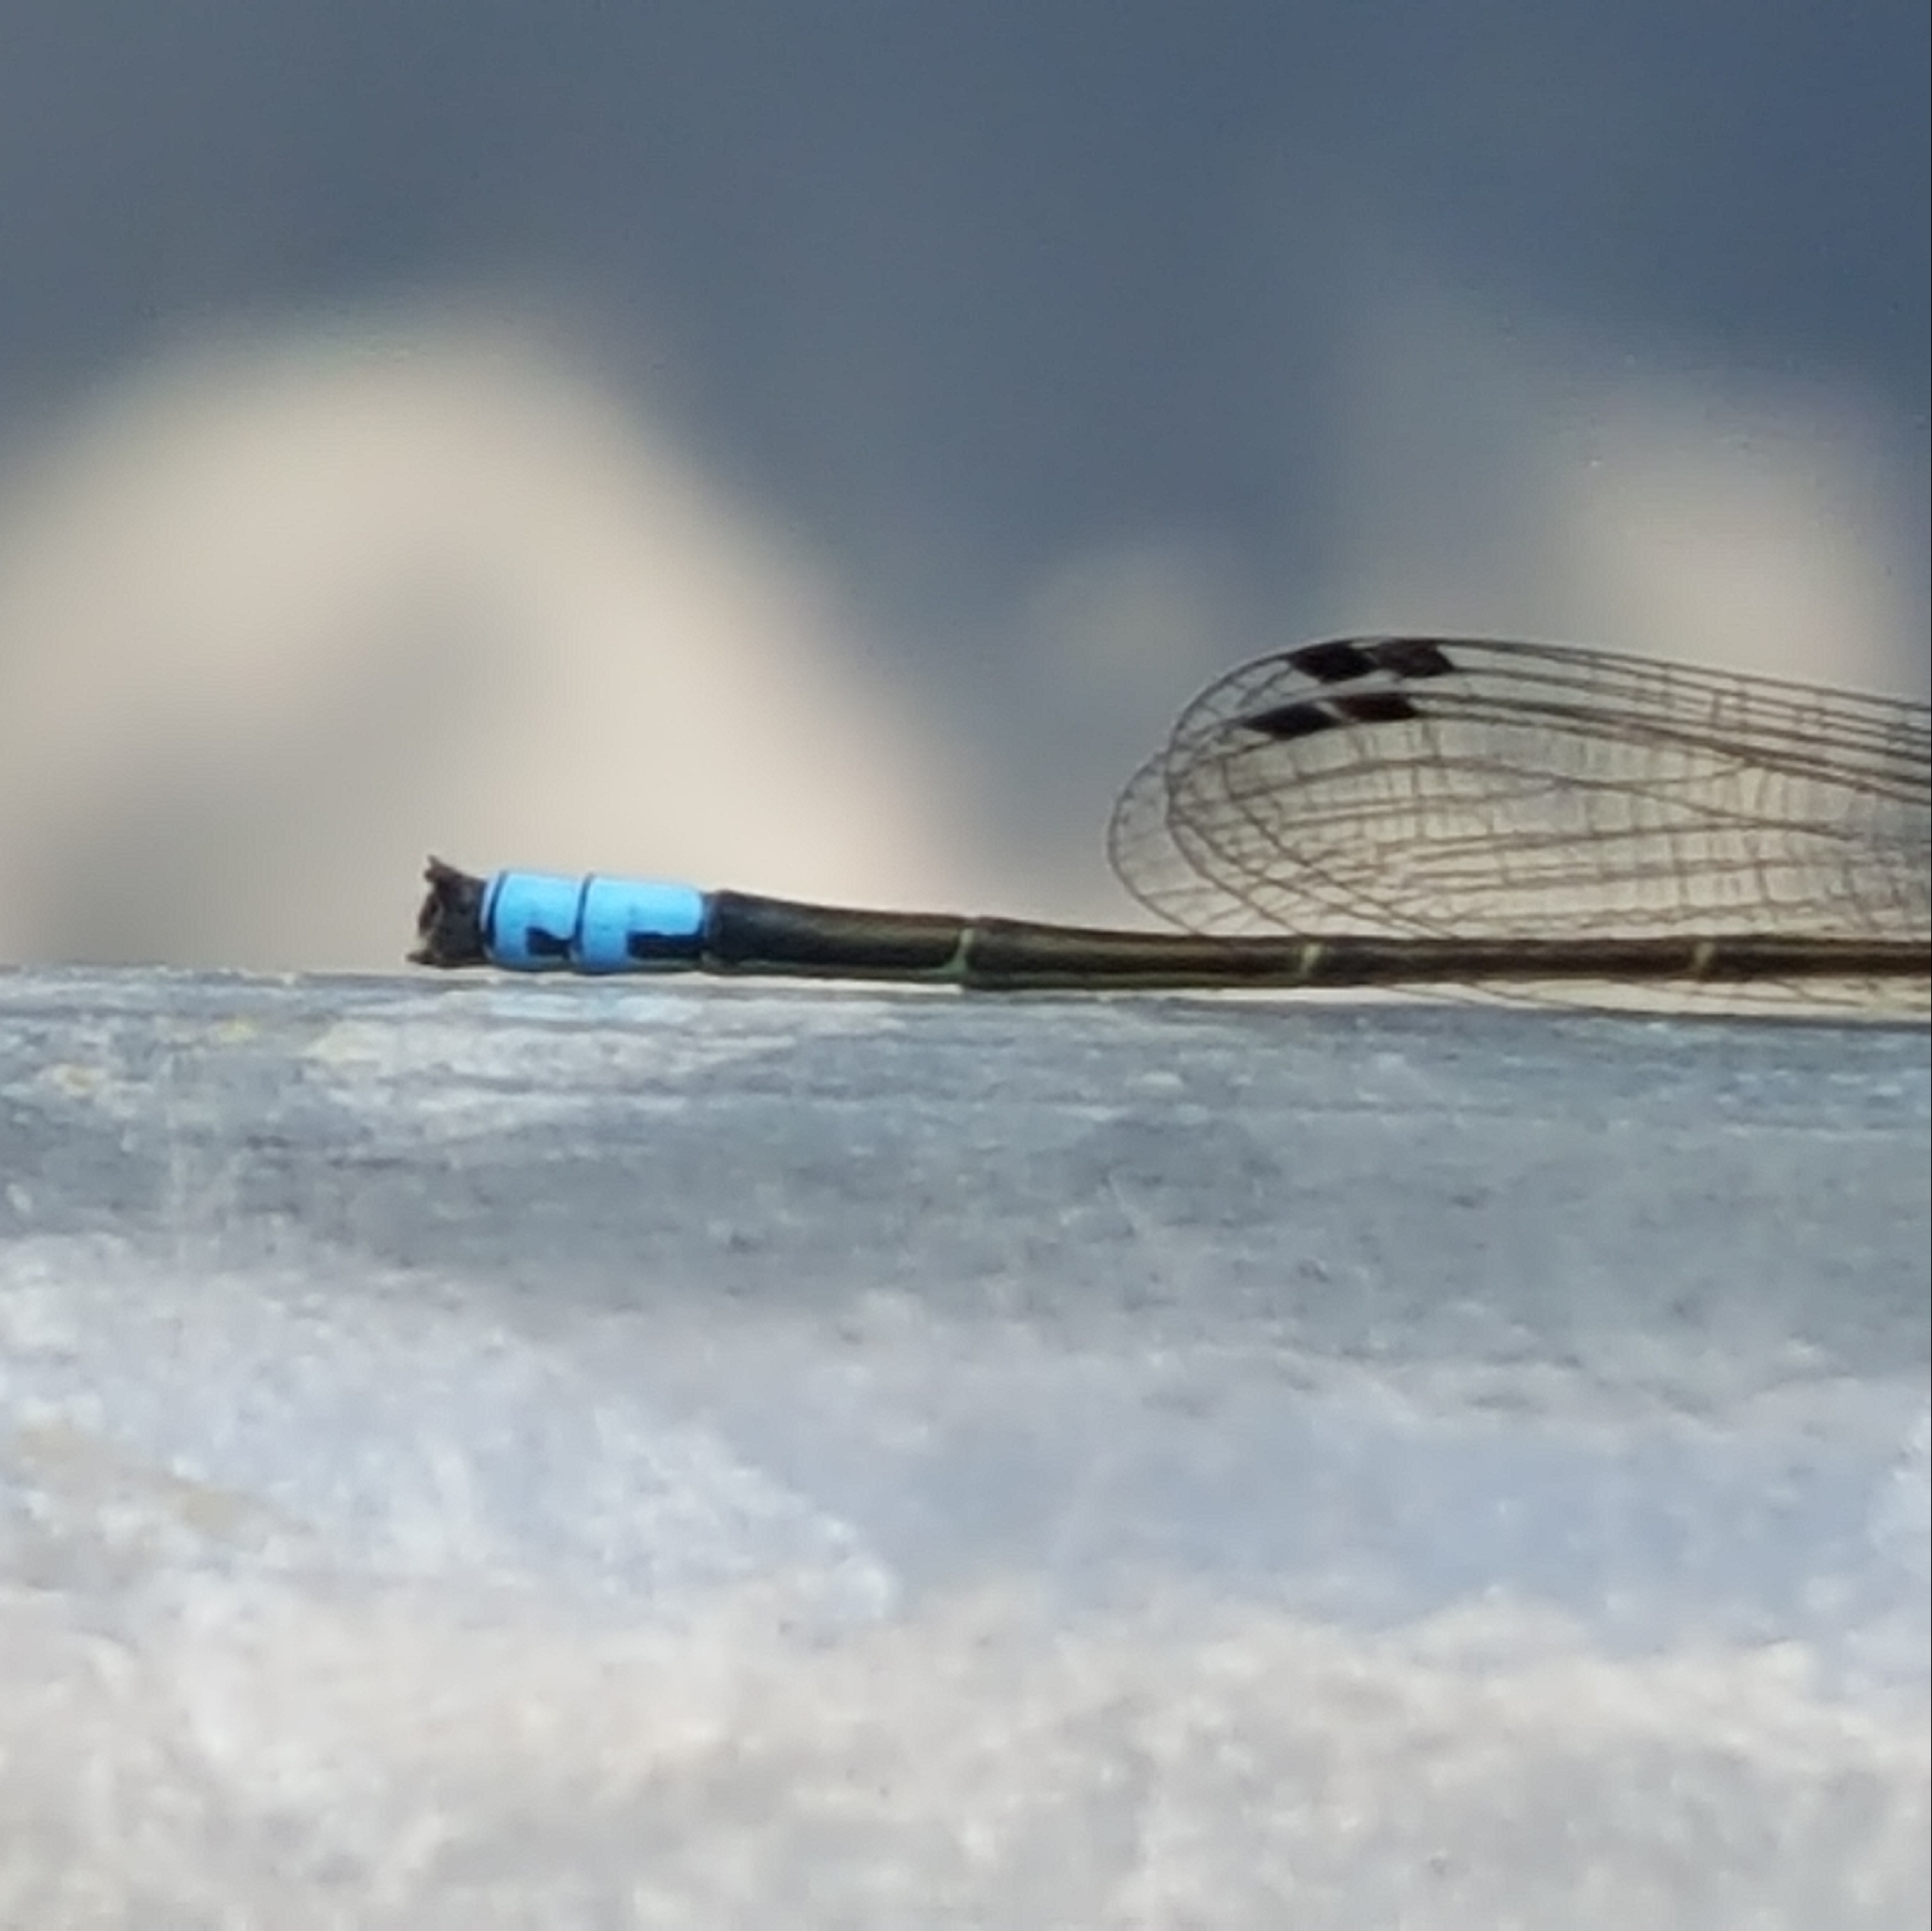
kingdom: Animalia
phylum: Arthropoda
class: Insecta
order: Odonata
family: Coenagrionidae
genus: Ischnura
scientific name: Ischnura cervula
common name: Pacific forktail
